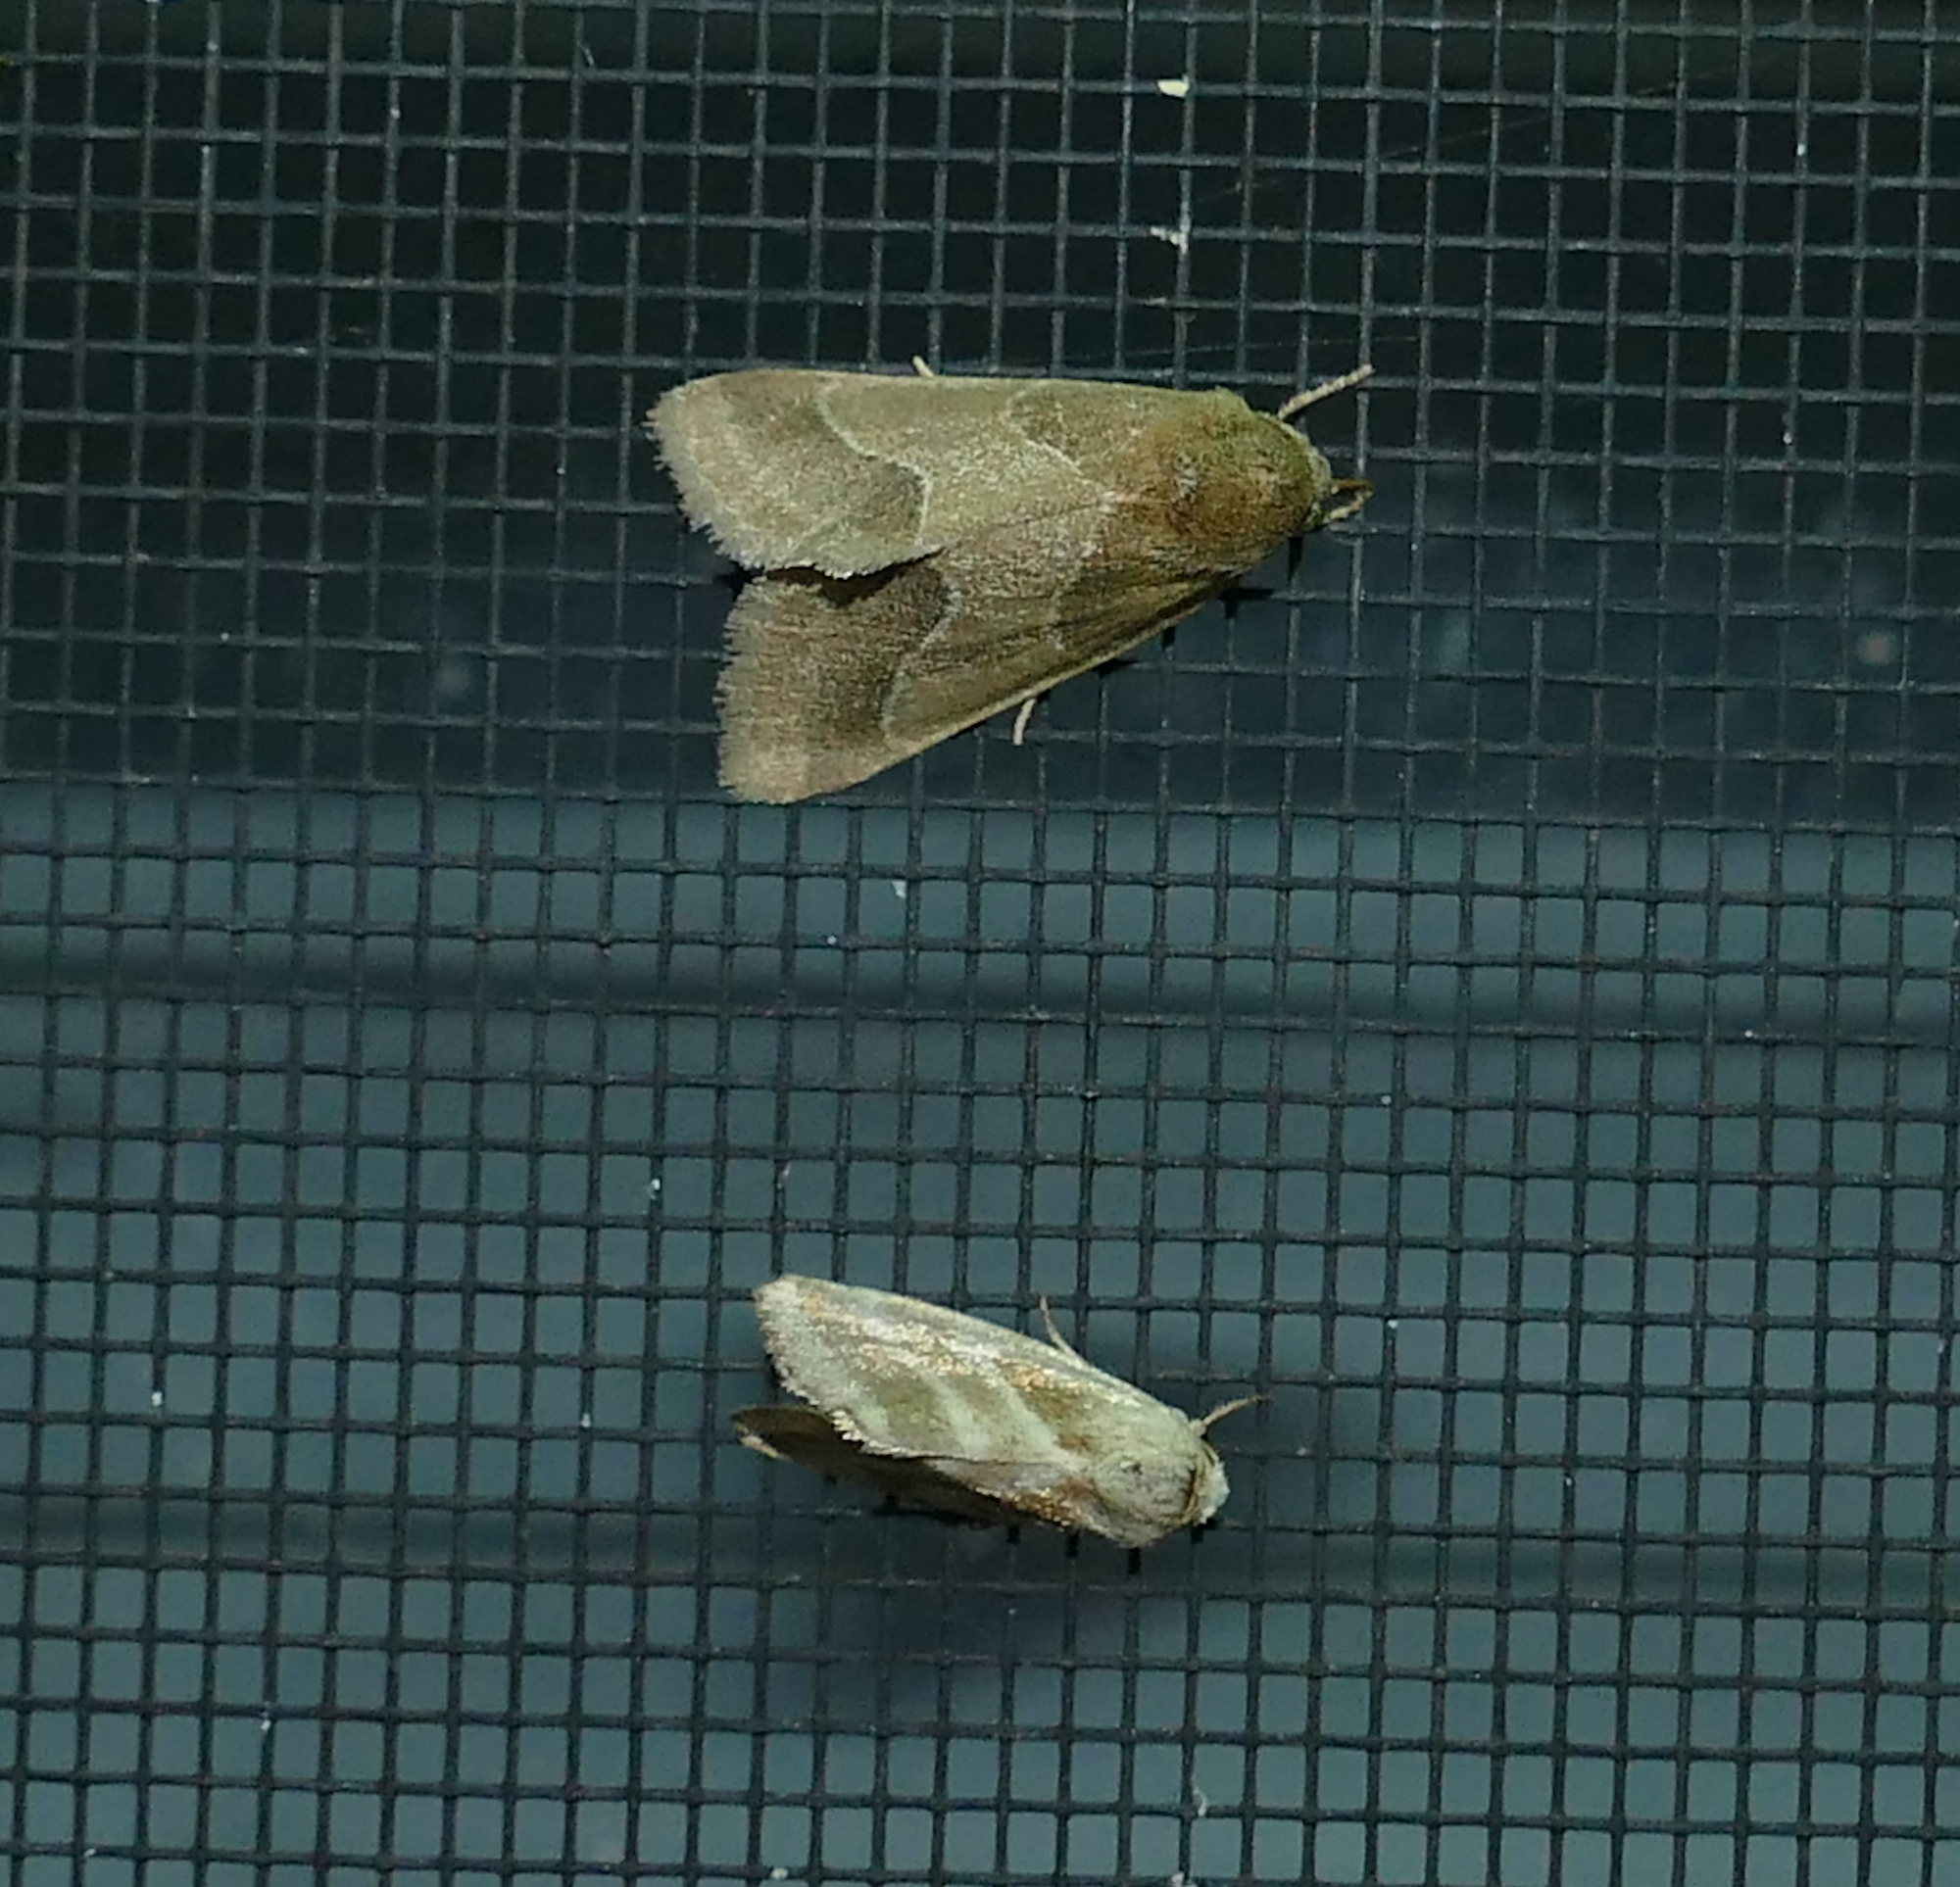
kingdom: Animalia
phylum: Arthropoda
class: Insecta
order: Lepidoptera
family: Noctuidae
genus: Schinia
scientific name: Schinia gracilenta
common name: Slender flower moth
